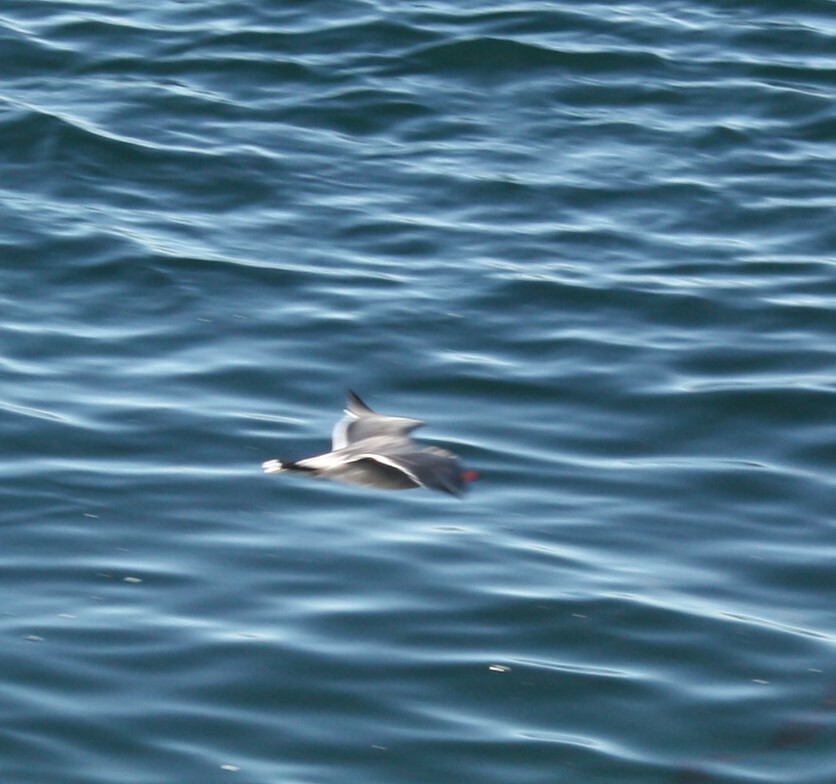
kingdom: Animalia
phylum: Chordata
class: Aves
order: Charadriiformes
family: Laridae
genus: Larus
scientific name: Larus heermanni
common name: Heermann's gull
